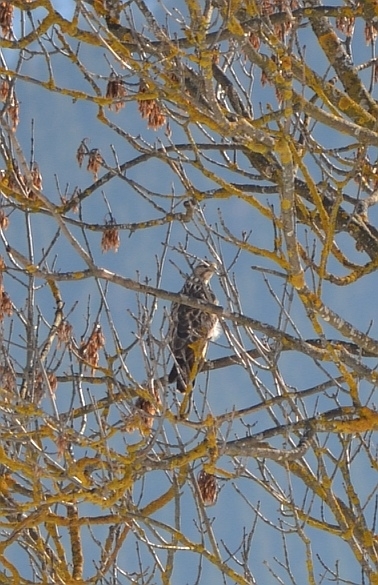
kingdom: Animalia
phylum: Chordata
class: Aves
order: Accipitriformes
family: Accipitridae
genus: Buteo
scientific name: Buteo buteo
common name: Common buzzard
